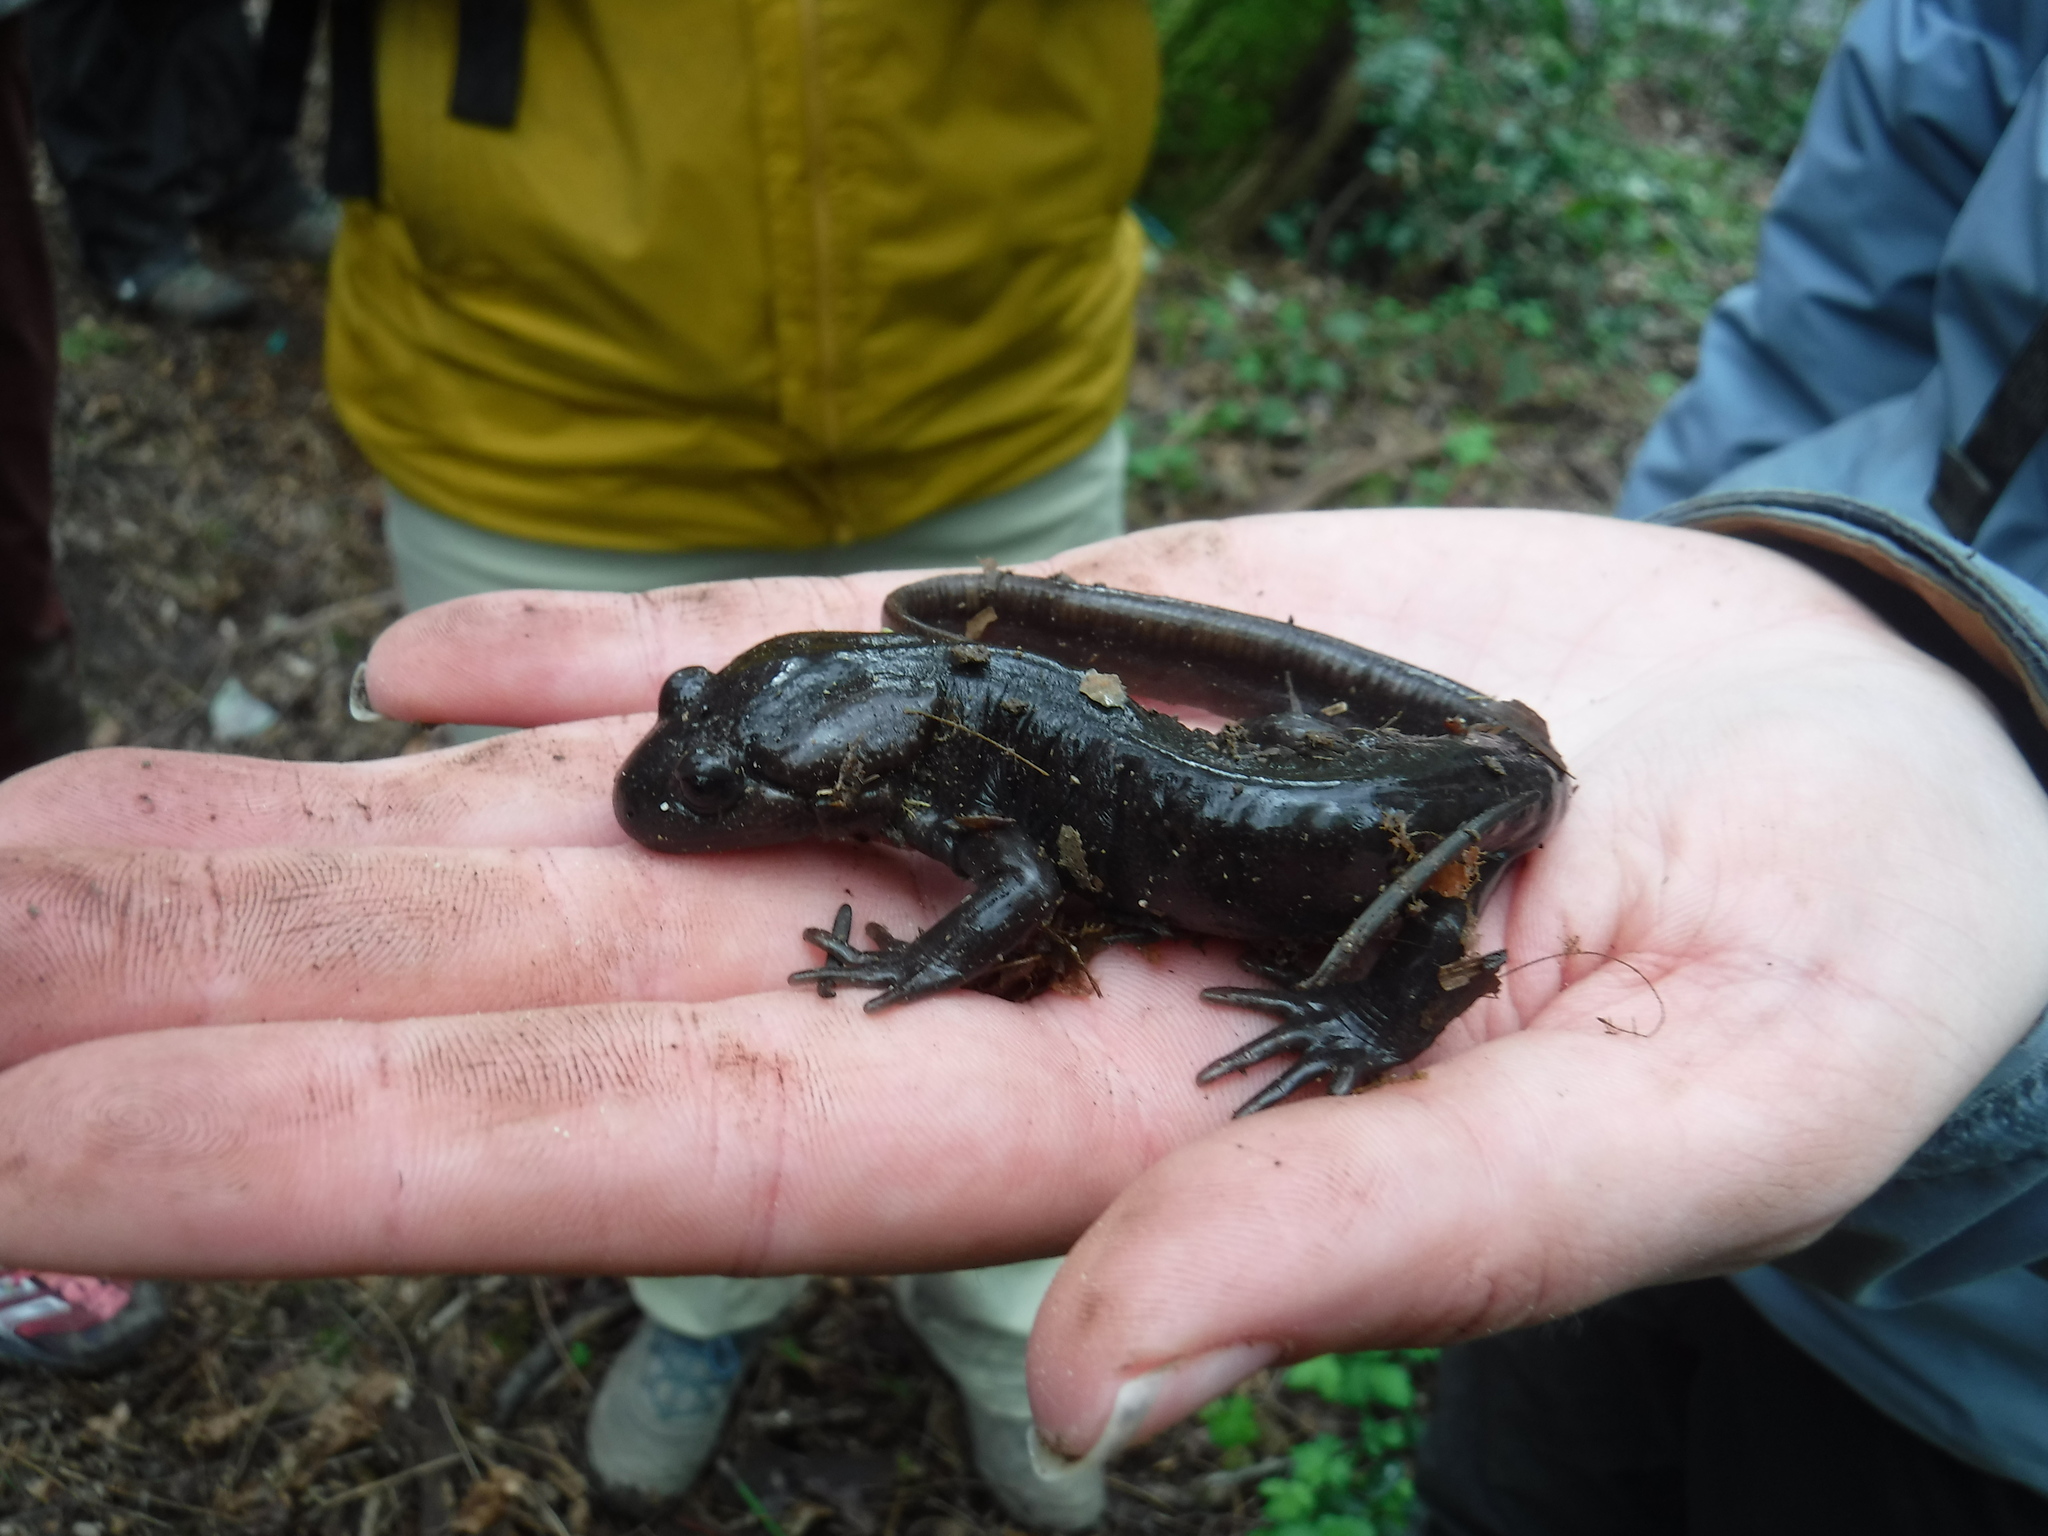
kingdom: Animalia
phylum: Chordata
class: Amphibia
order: Caudata
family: Ambystomatidae
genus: Ambystoma
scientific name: Ambystoma gracile
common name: Northwestern salamander
